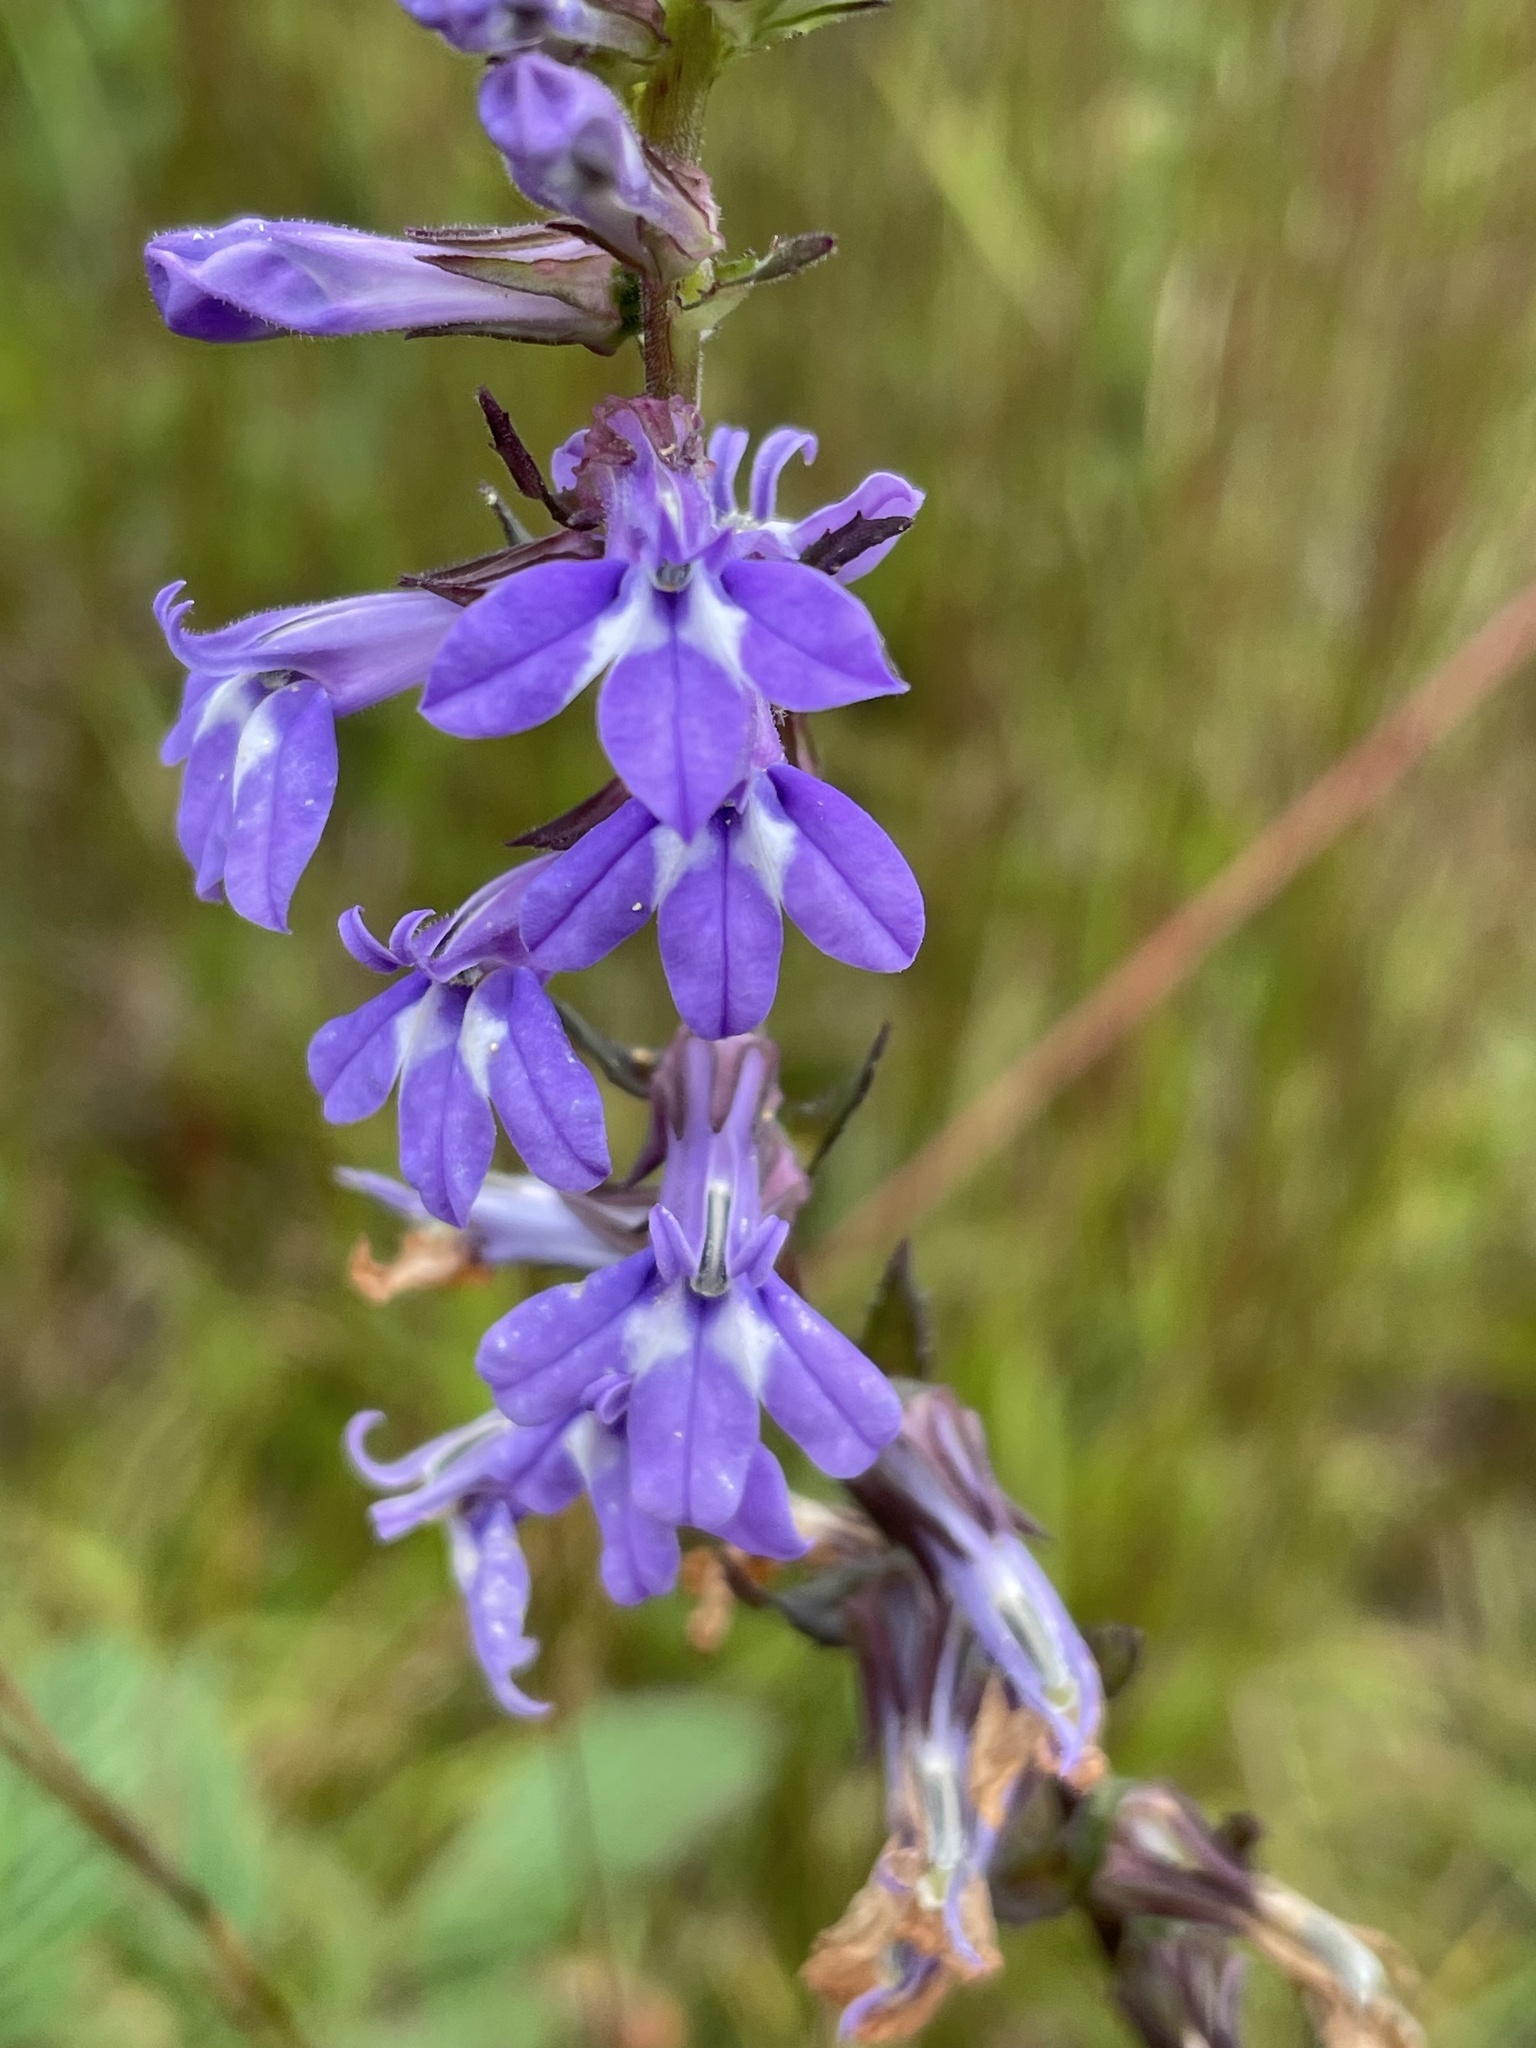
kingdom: Plantae
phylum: Tracheophyta
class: Magnoliopsida
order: Asterales
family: Campanulaceae
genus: Lobelia
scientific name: Lobelia puberula
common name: Purple dewdrop
